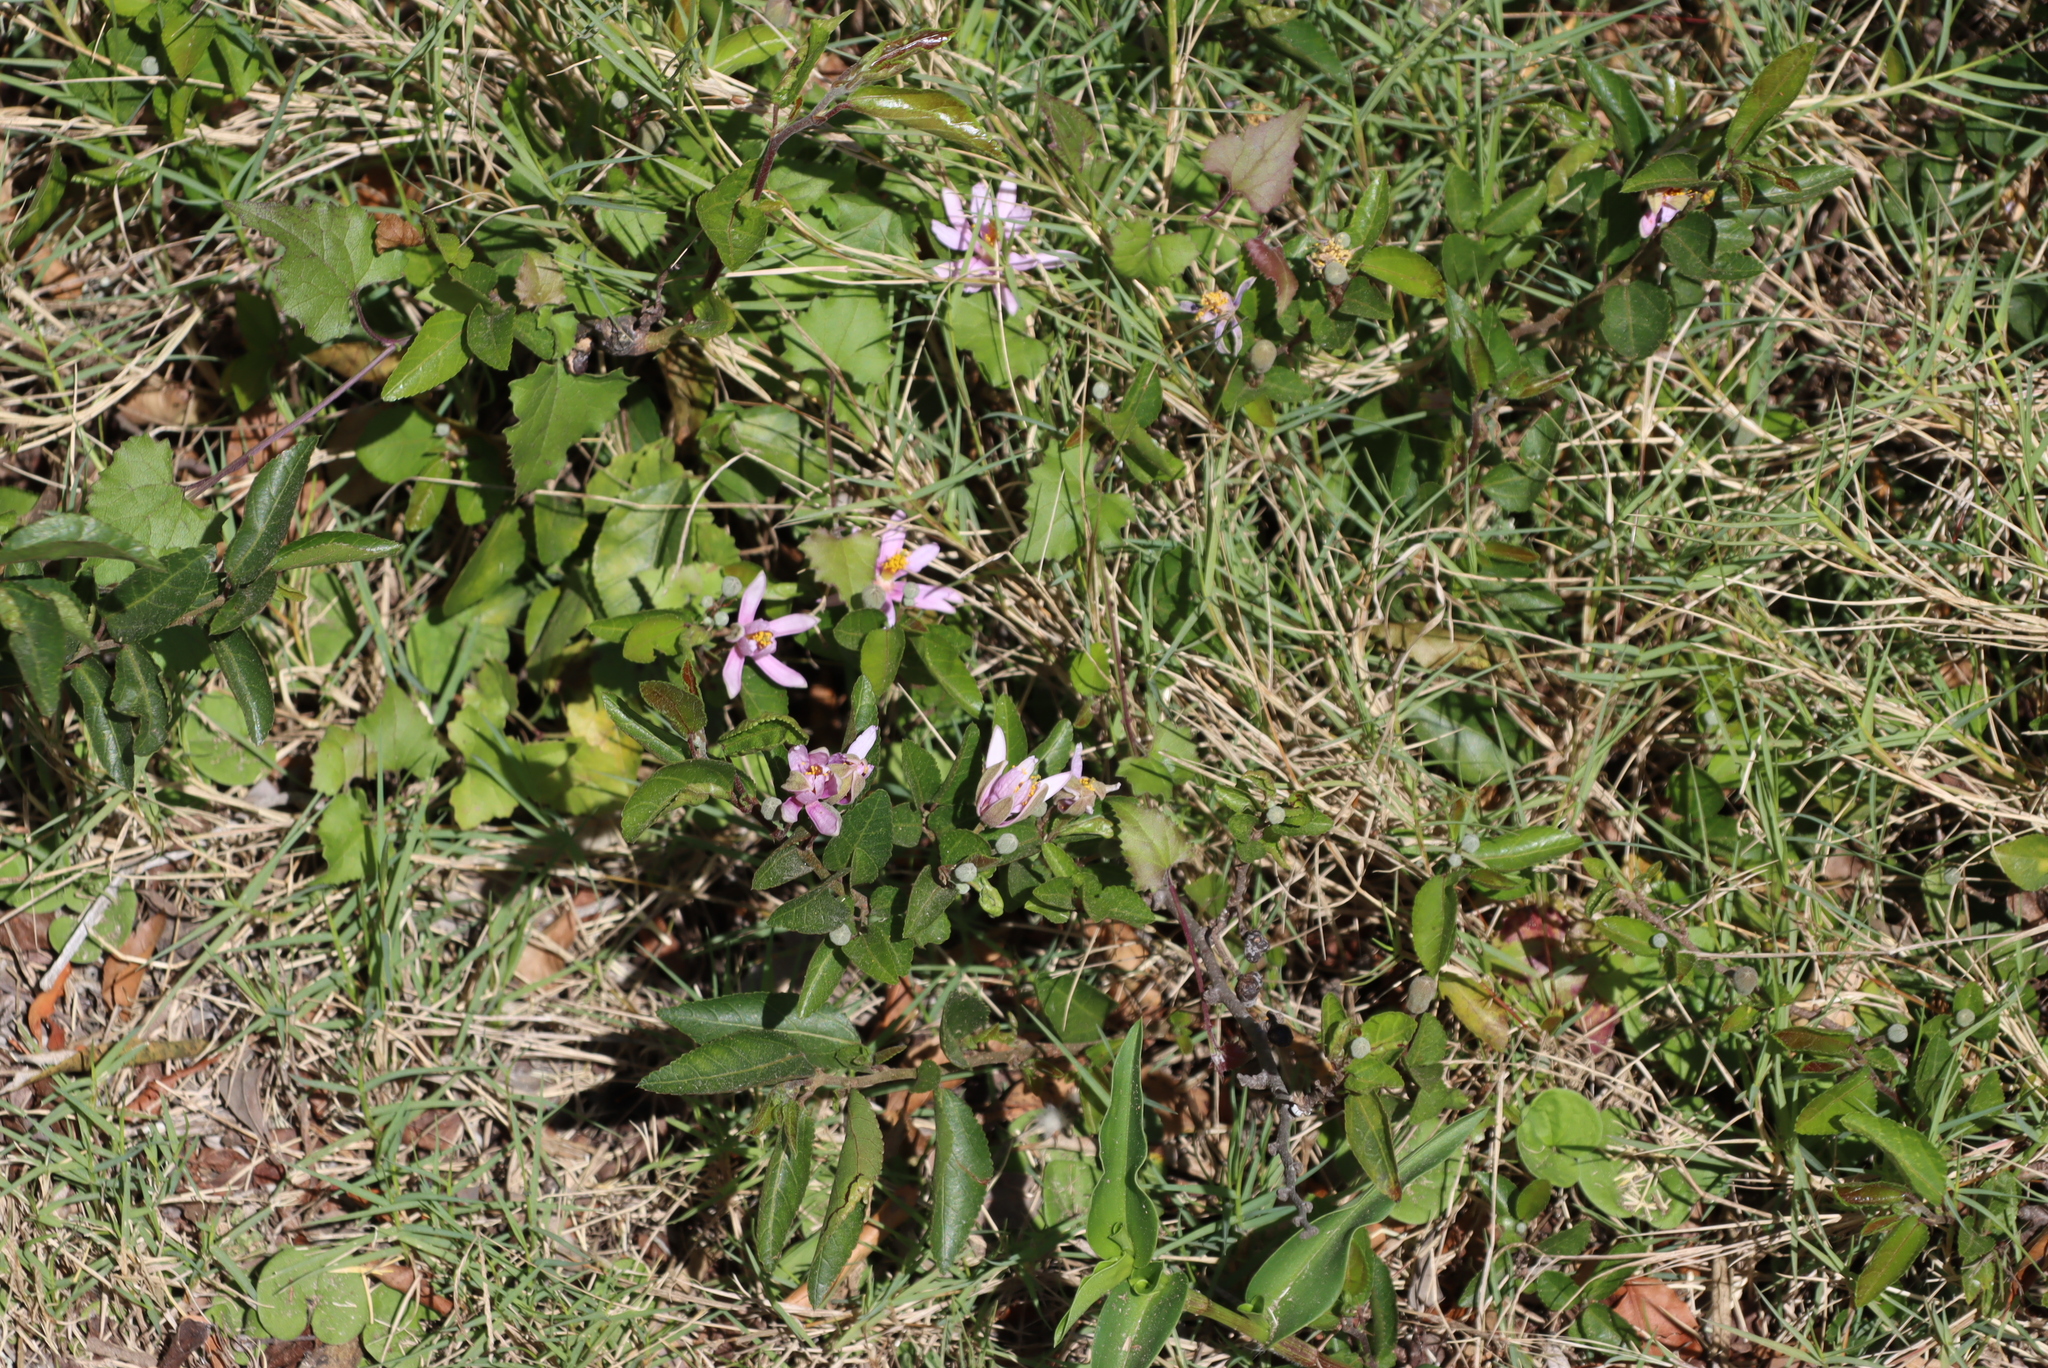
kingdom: Plantae
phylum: Tracheophyta
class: Magnoliopsida
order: Malvales
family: Malvaceae
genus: Grewia
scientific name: Grewia occidentalis
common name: Crossberry
